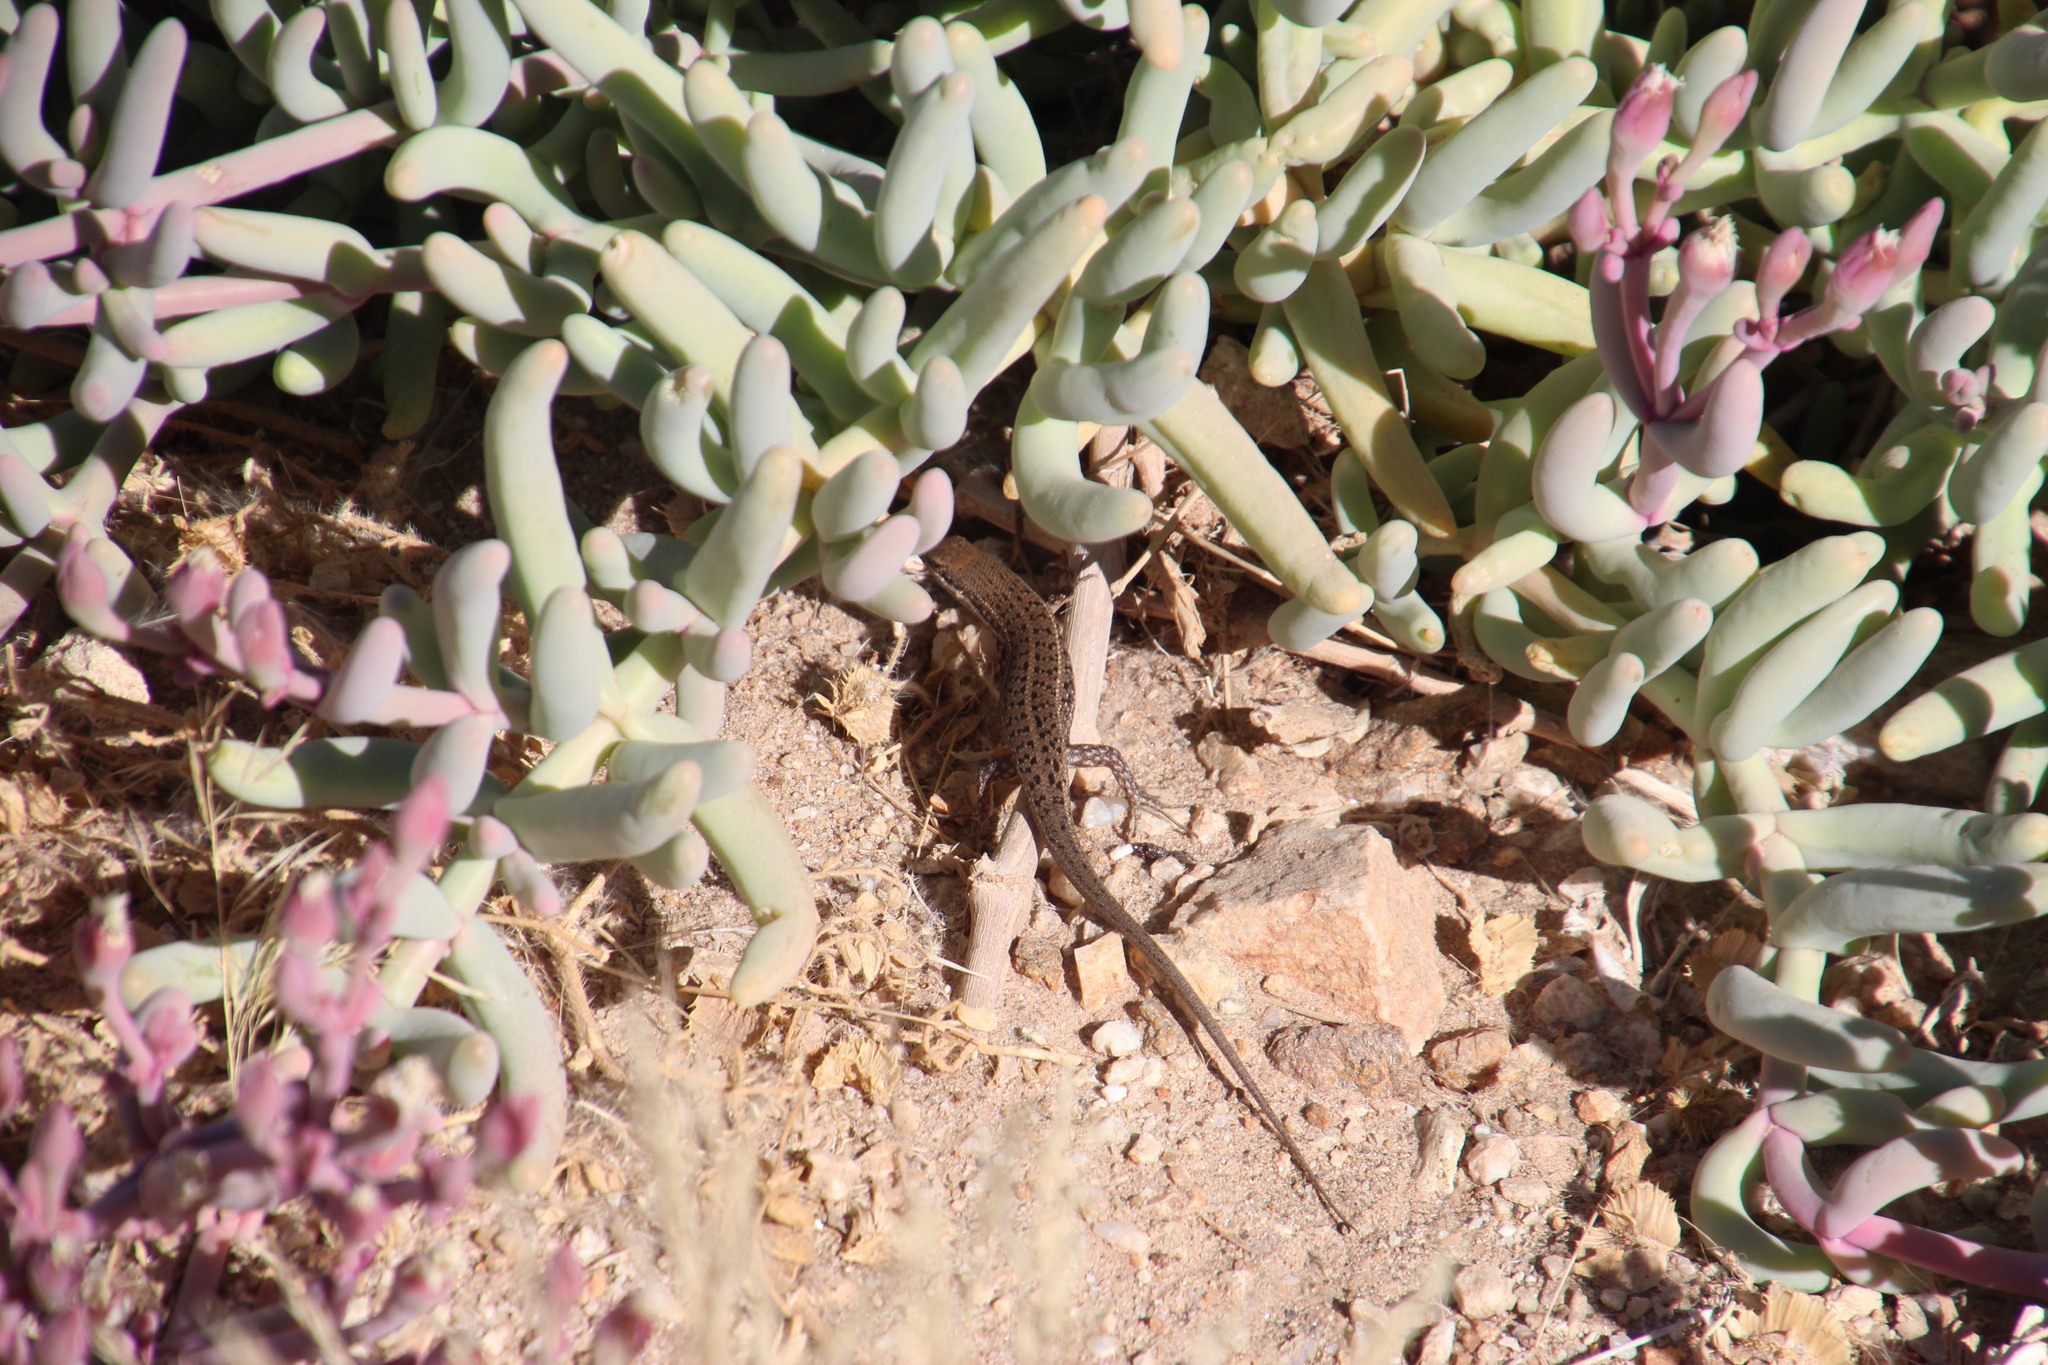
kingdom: Animalia
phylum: Chordata
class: Squamata
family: Scincidae
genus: Trachylepis
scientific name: Trachylepis variegata
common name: Variegated skink
